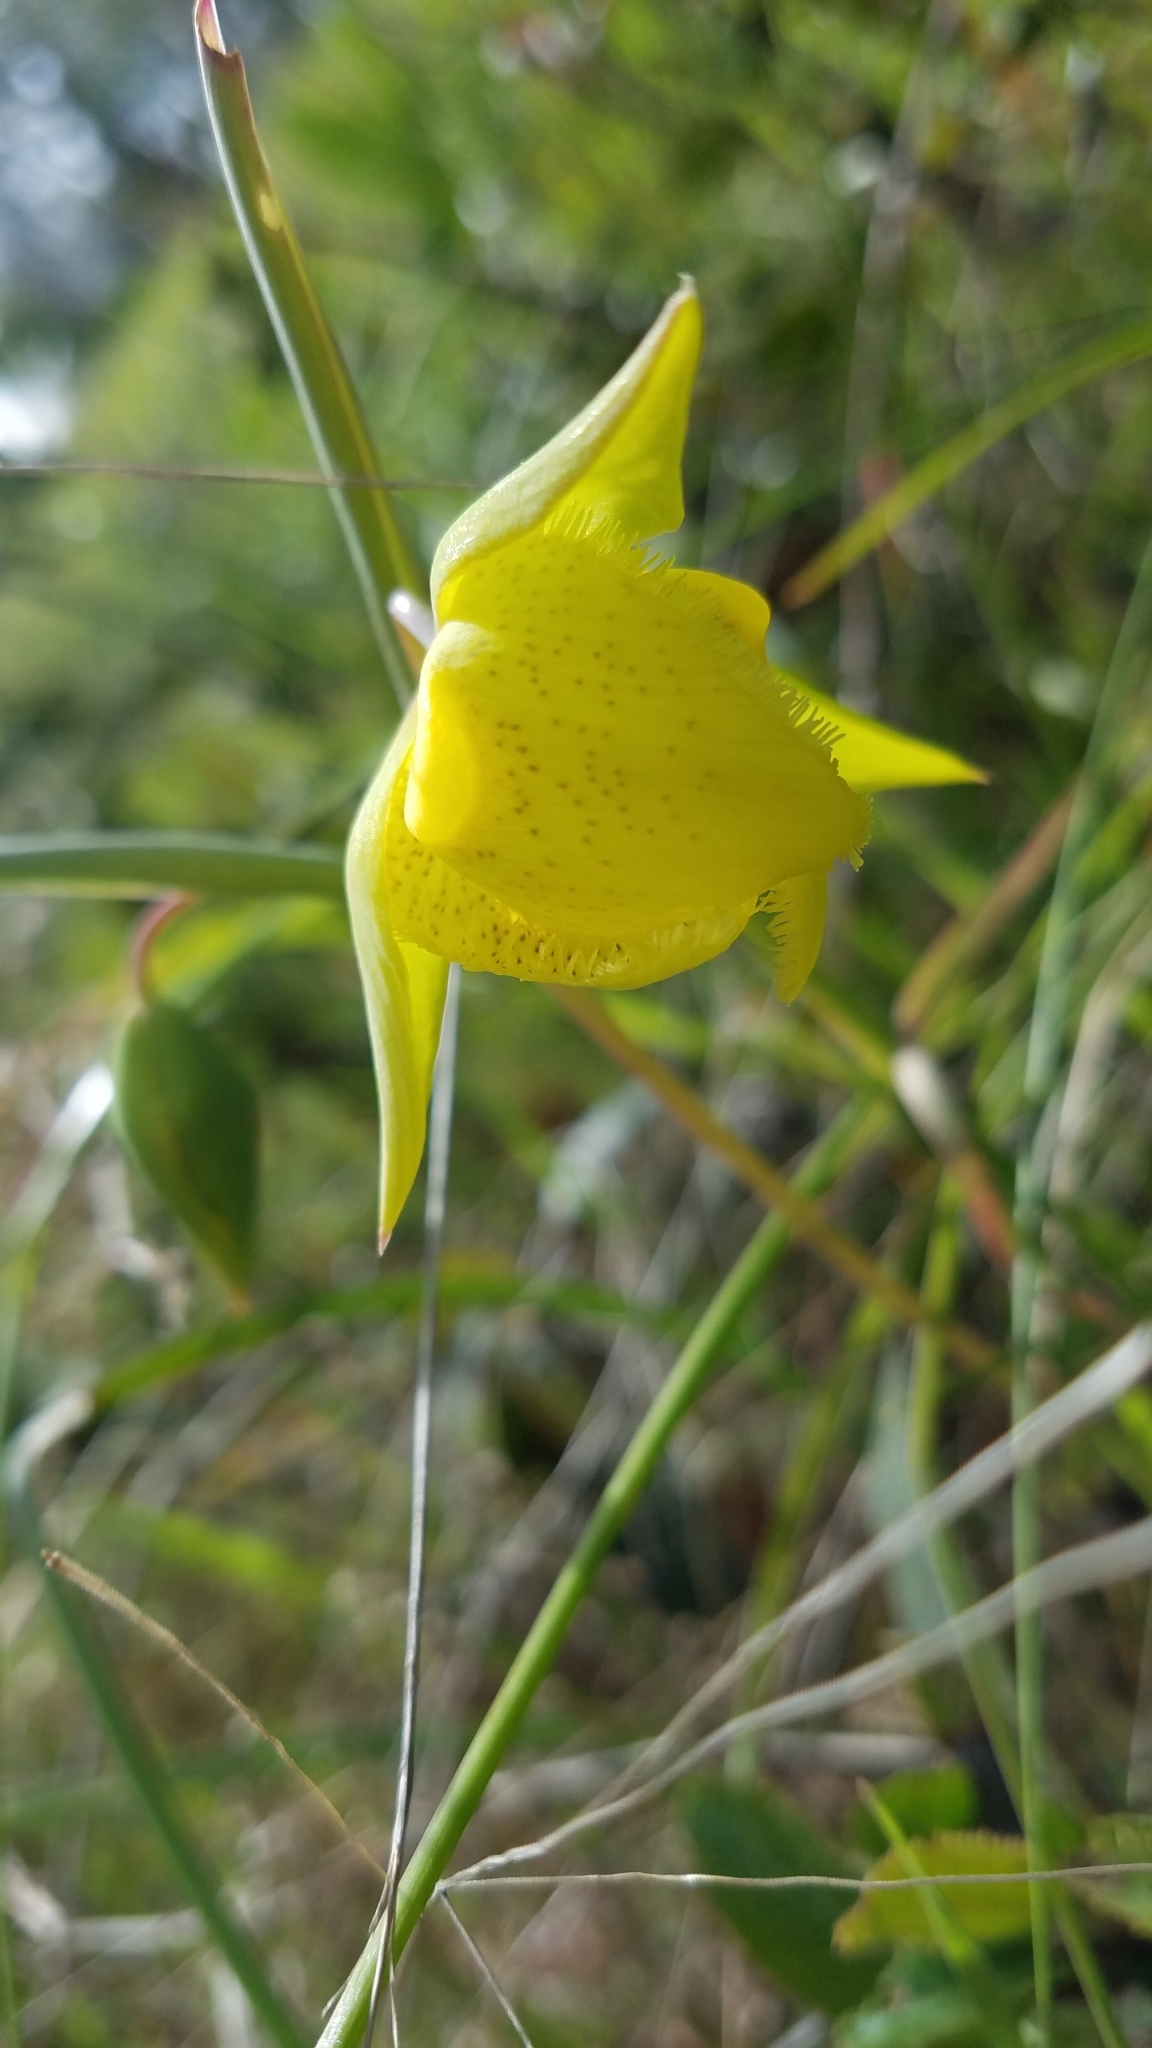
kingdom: Plantae
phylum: Tracheophyta
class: Liliopsida
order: Liliales
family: Liliaceae
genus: Calochortus
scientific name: Calochortus pulchellus
